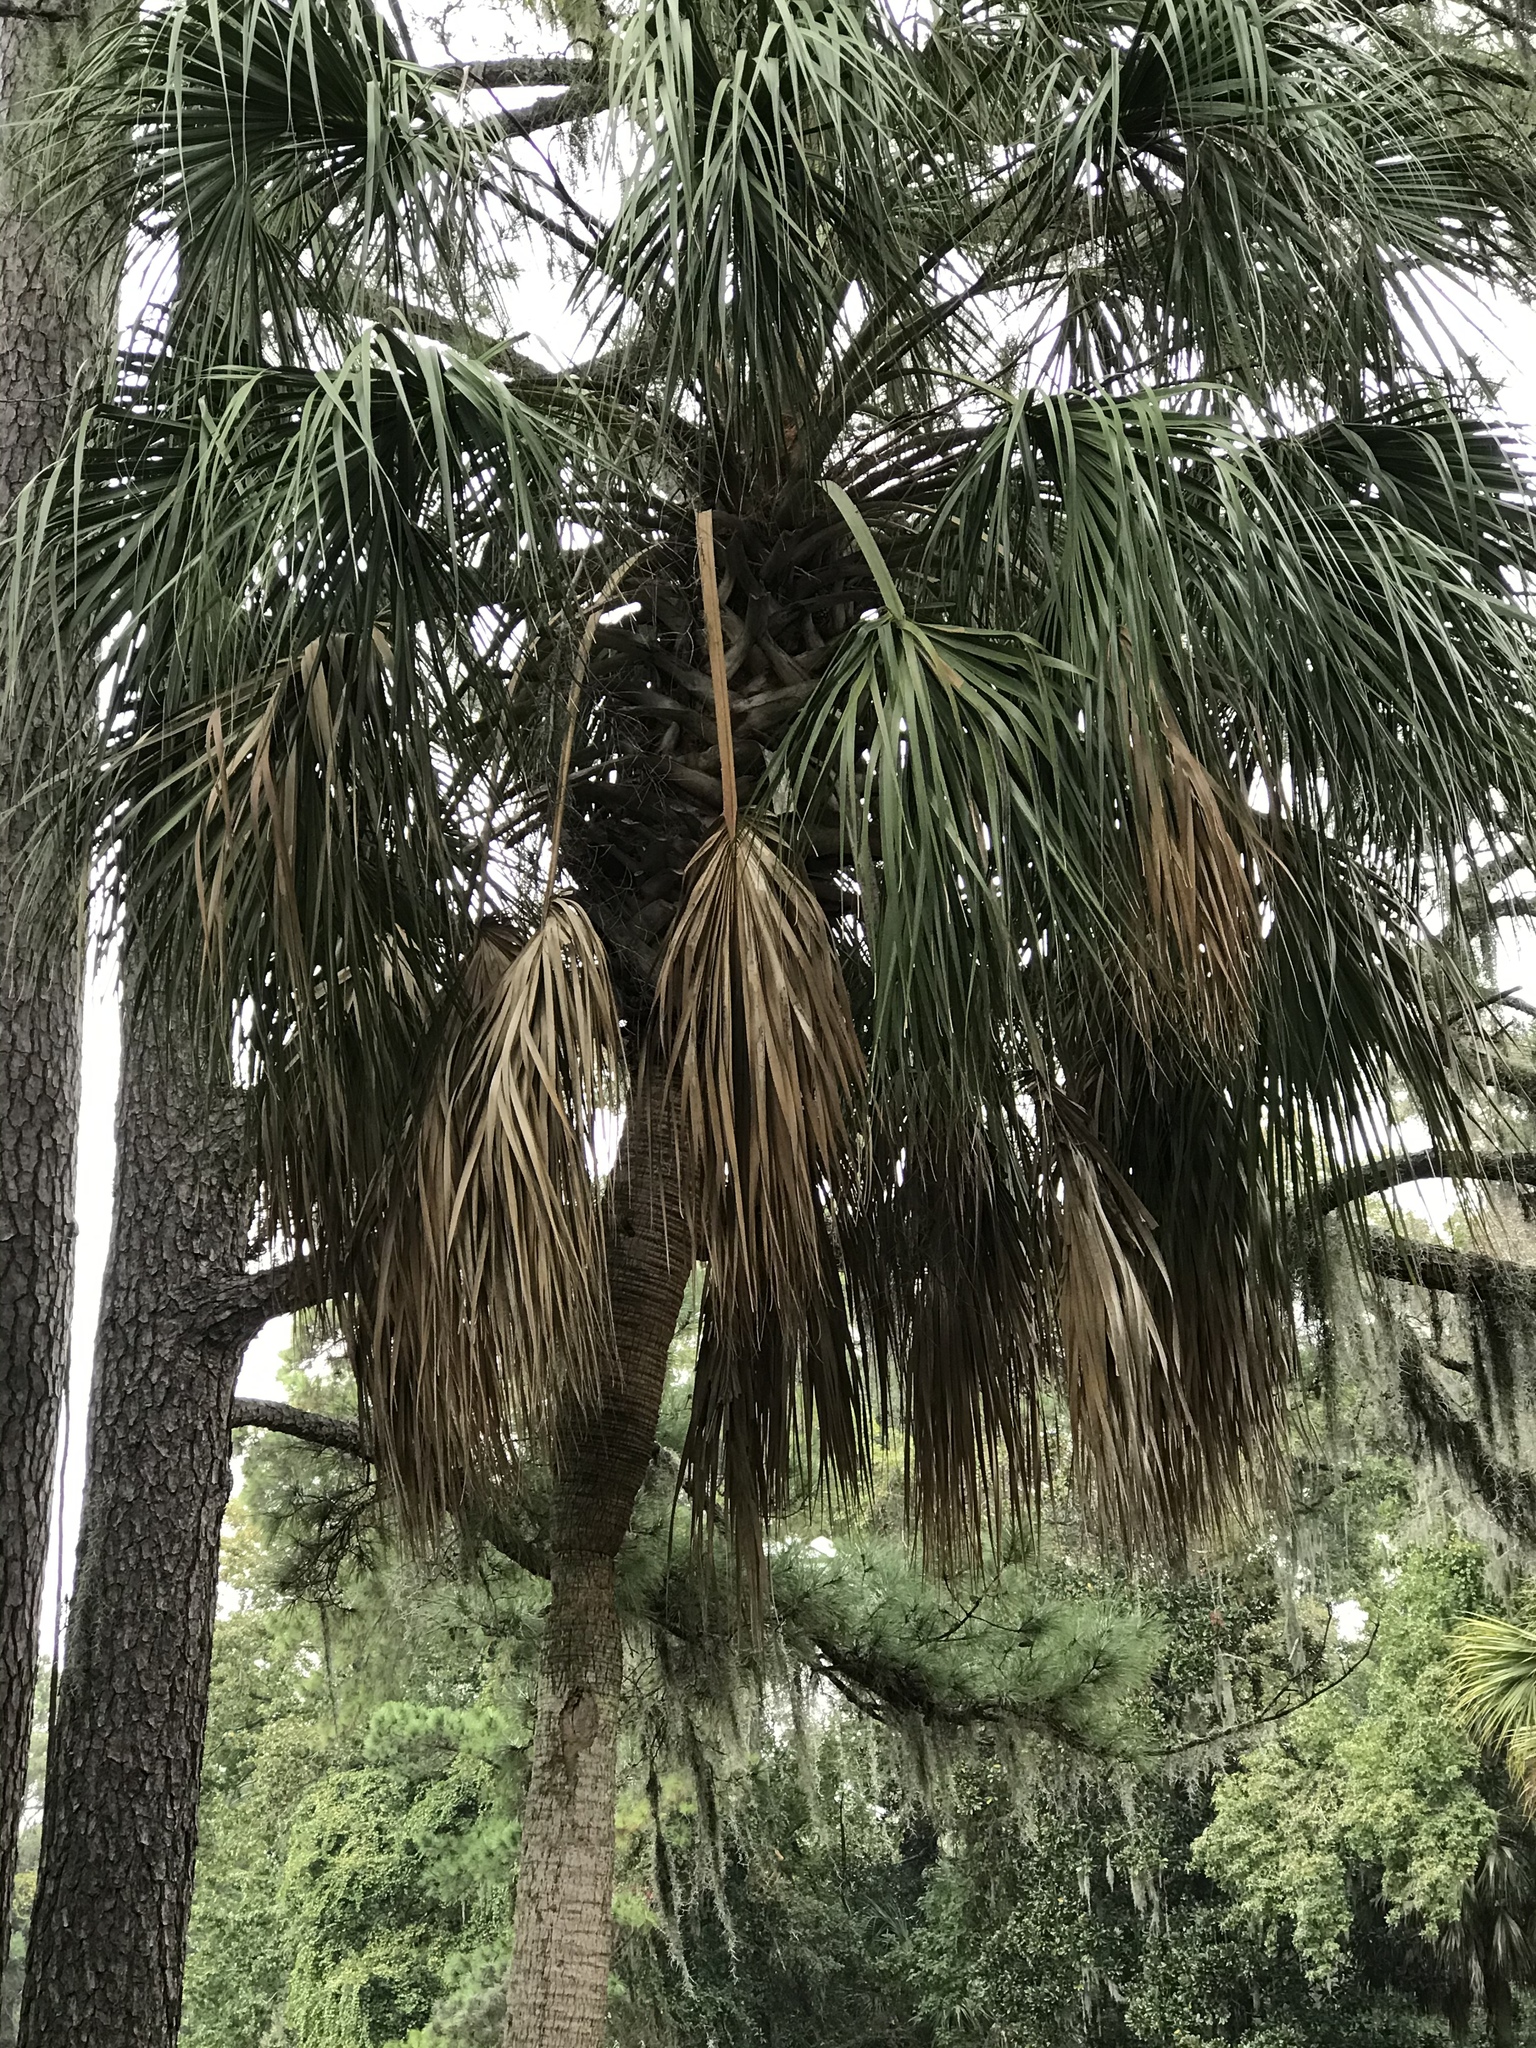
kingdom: Plantae
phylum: Tracheophyta
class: Liliopsida
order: Arecales
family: Arecaceae
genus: Sabal
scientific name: Sabal palmetto
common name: Blue palmetto
